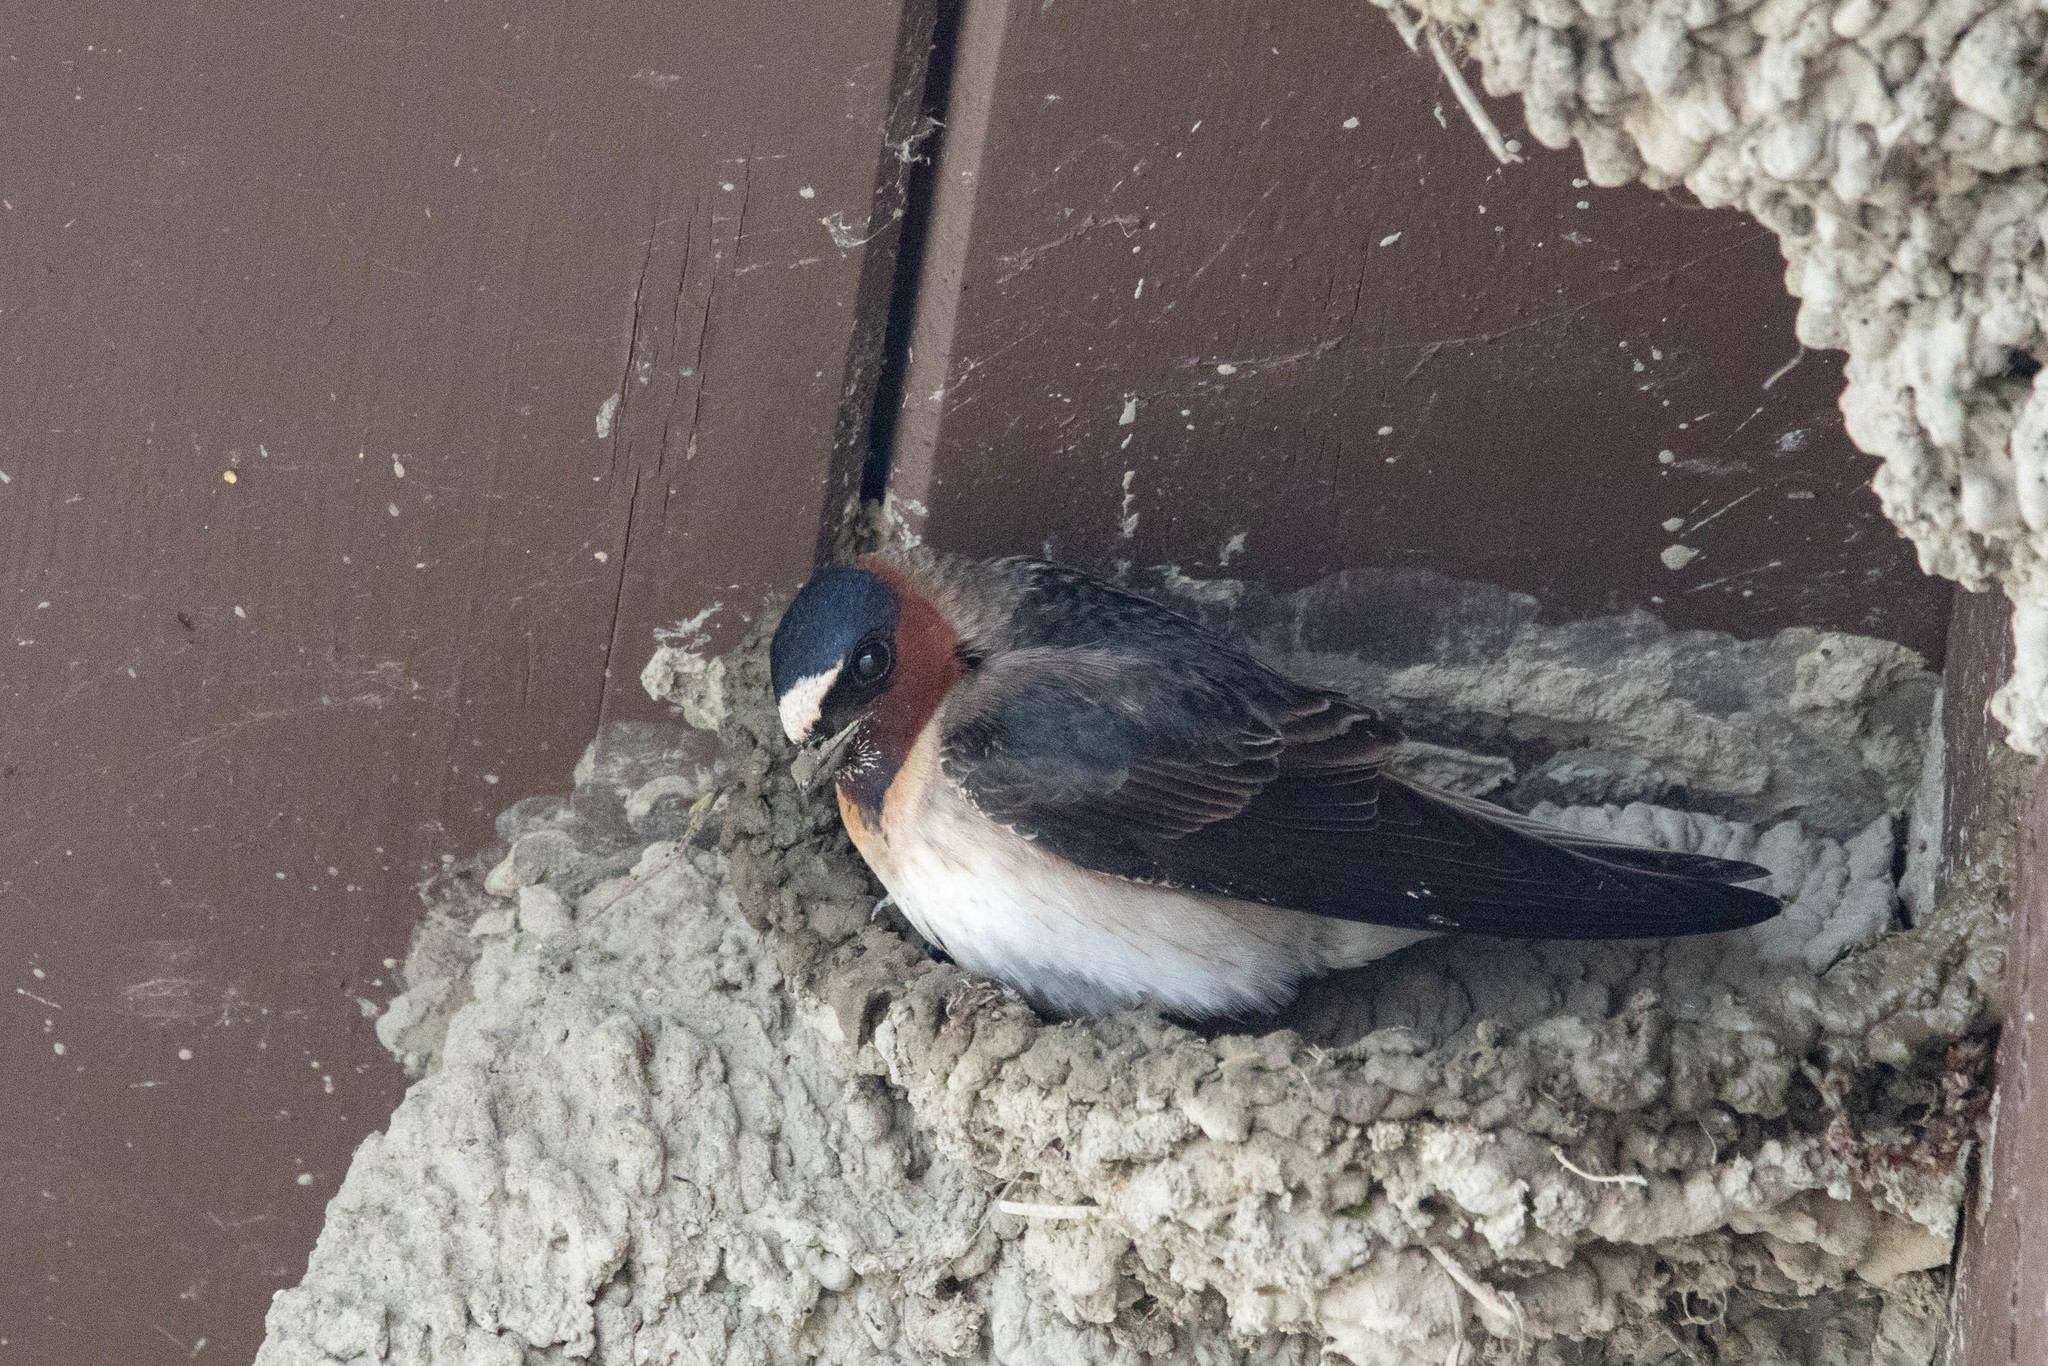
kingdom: Animalia
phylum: Chordata
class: Aves
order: Passeriformes
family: Hirundinidae
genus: Petrochelidon
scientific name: Petrochelidon pyrrhonota
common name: American cliff swallow
